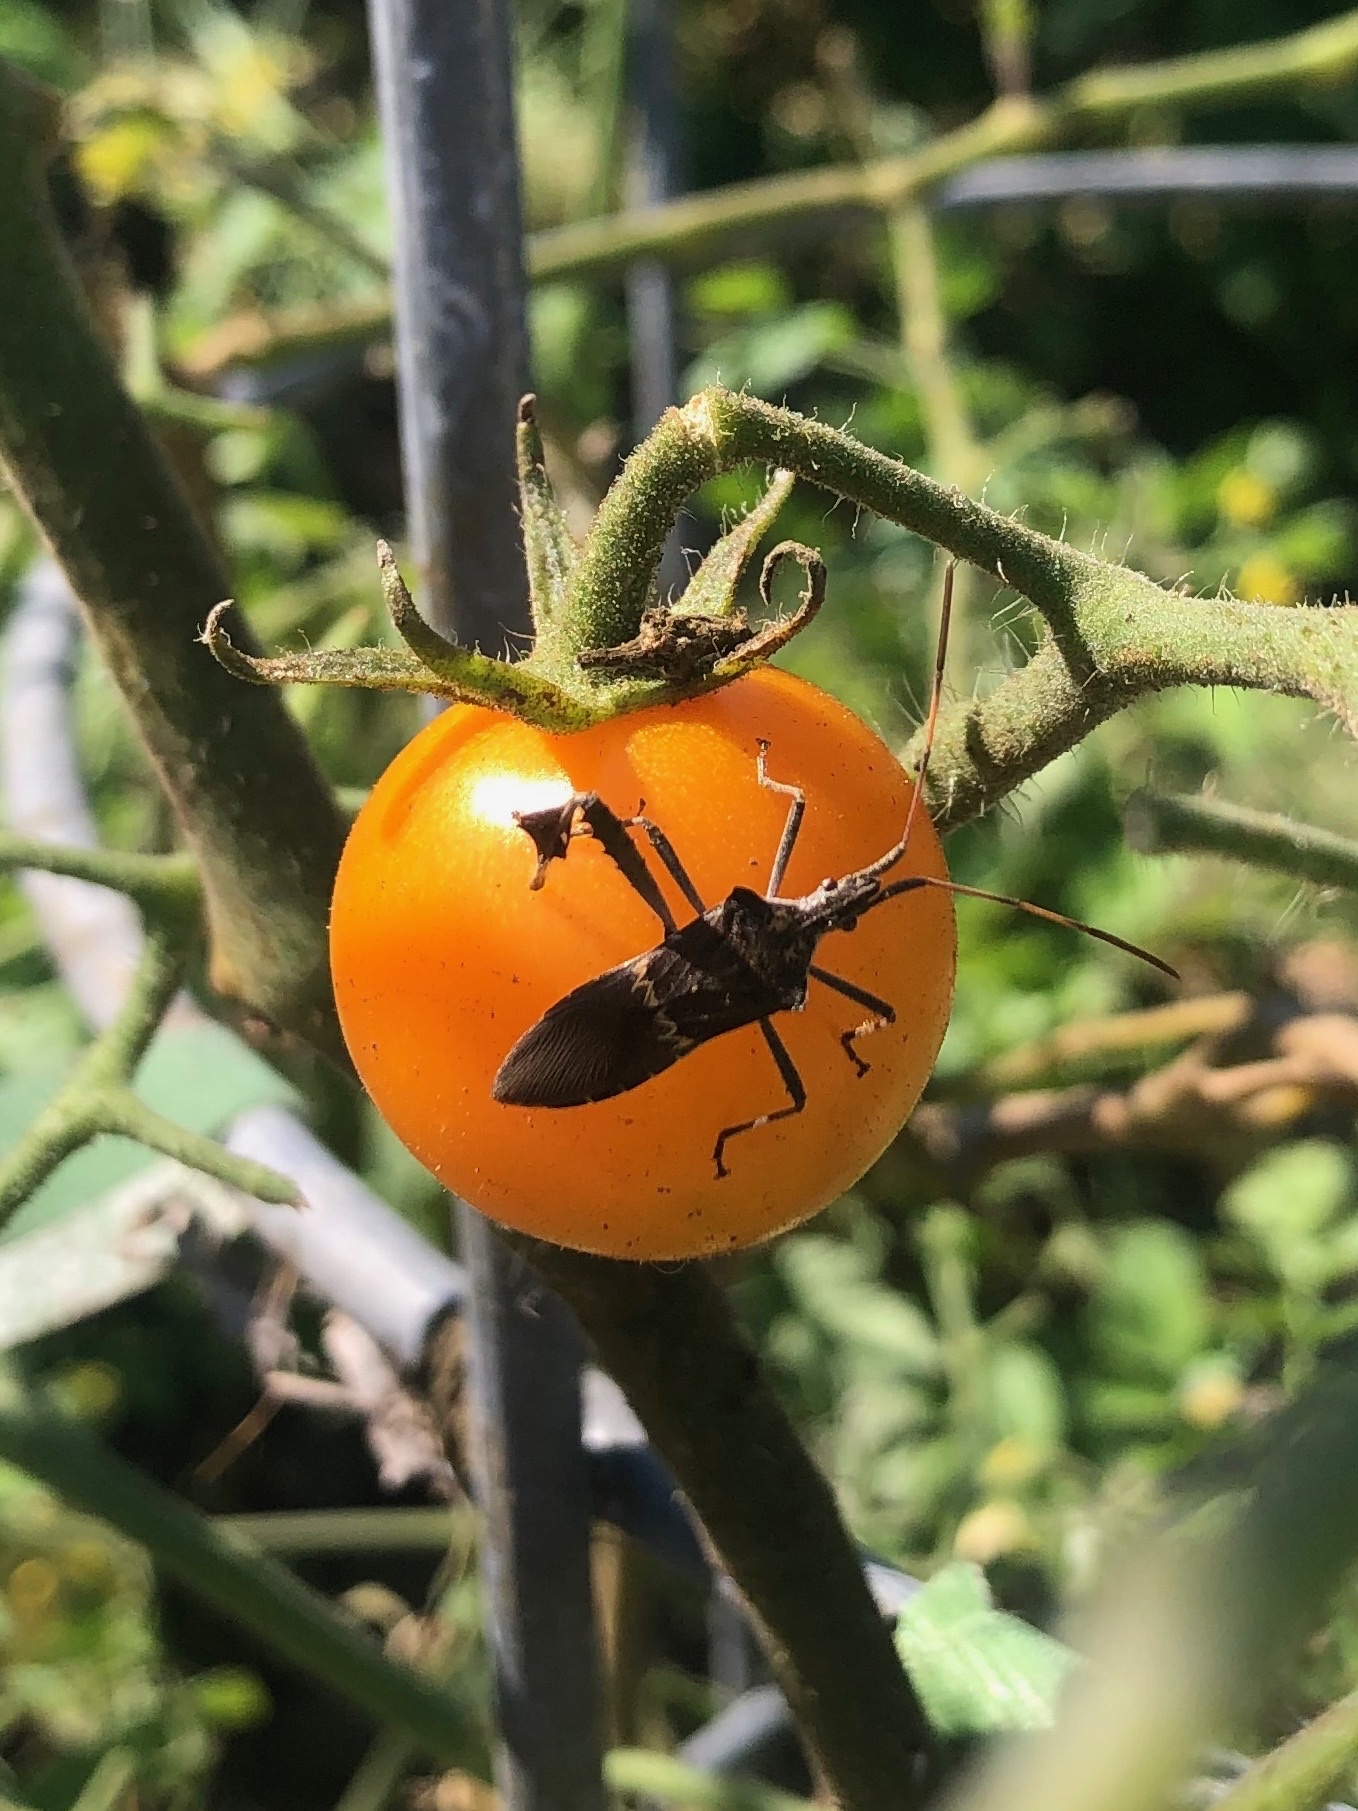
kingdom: Animalia
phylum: Arthropoda
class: Insecta
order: Hemiptera
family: Coreidae
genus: Leptoglossus
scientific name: Leptoglossus zonatus
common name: Large-legged bug
